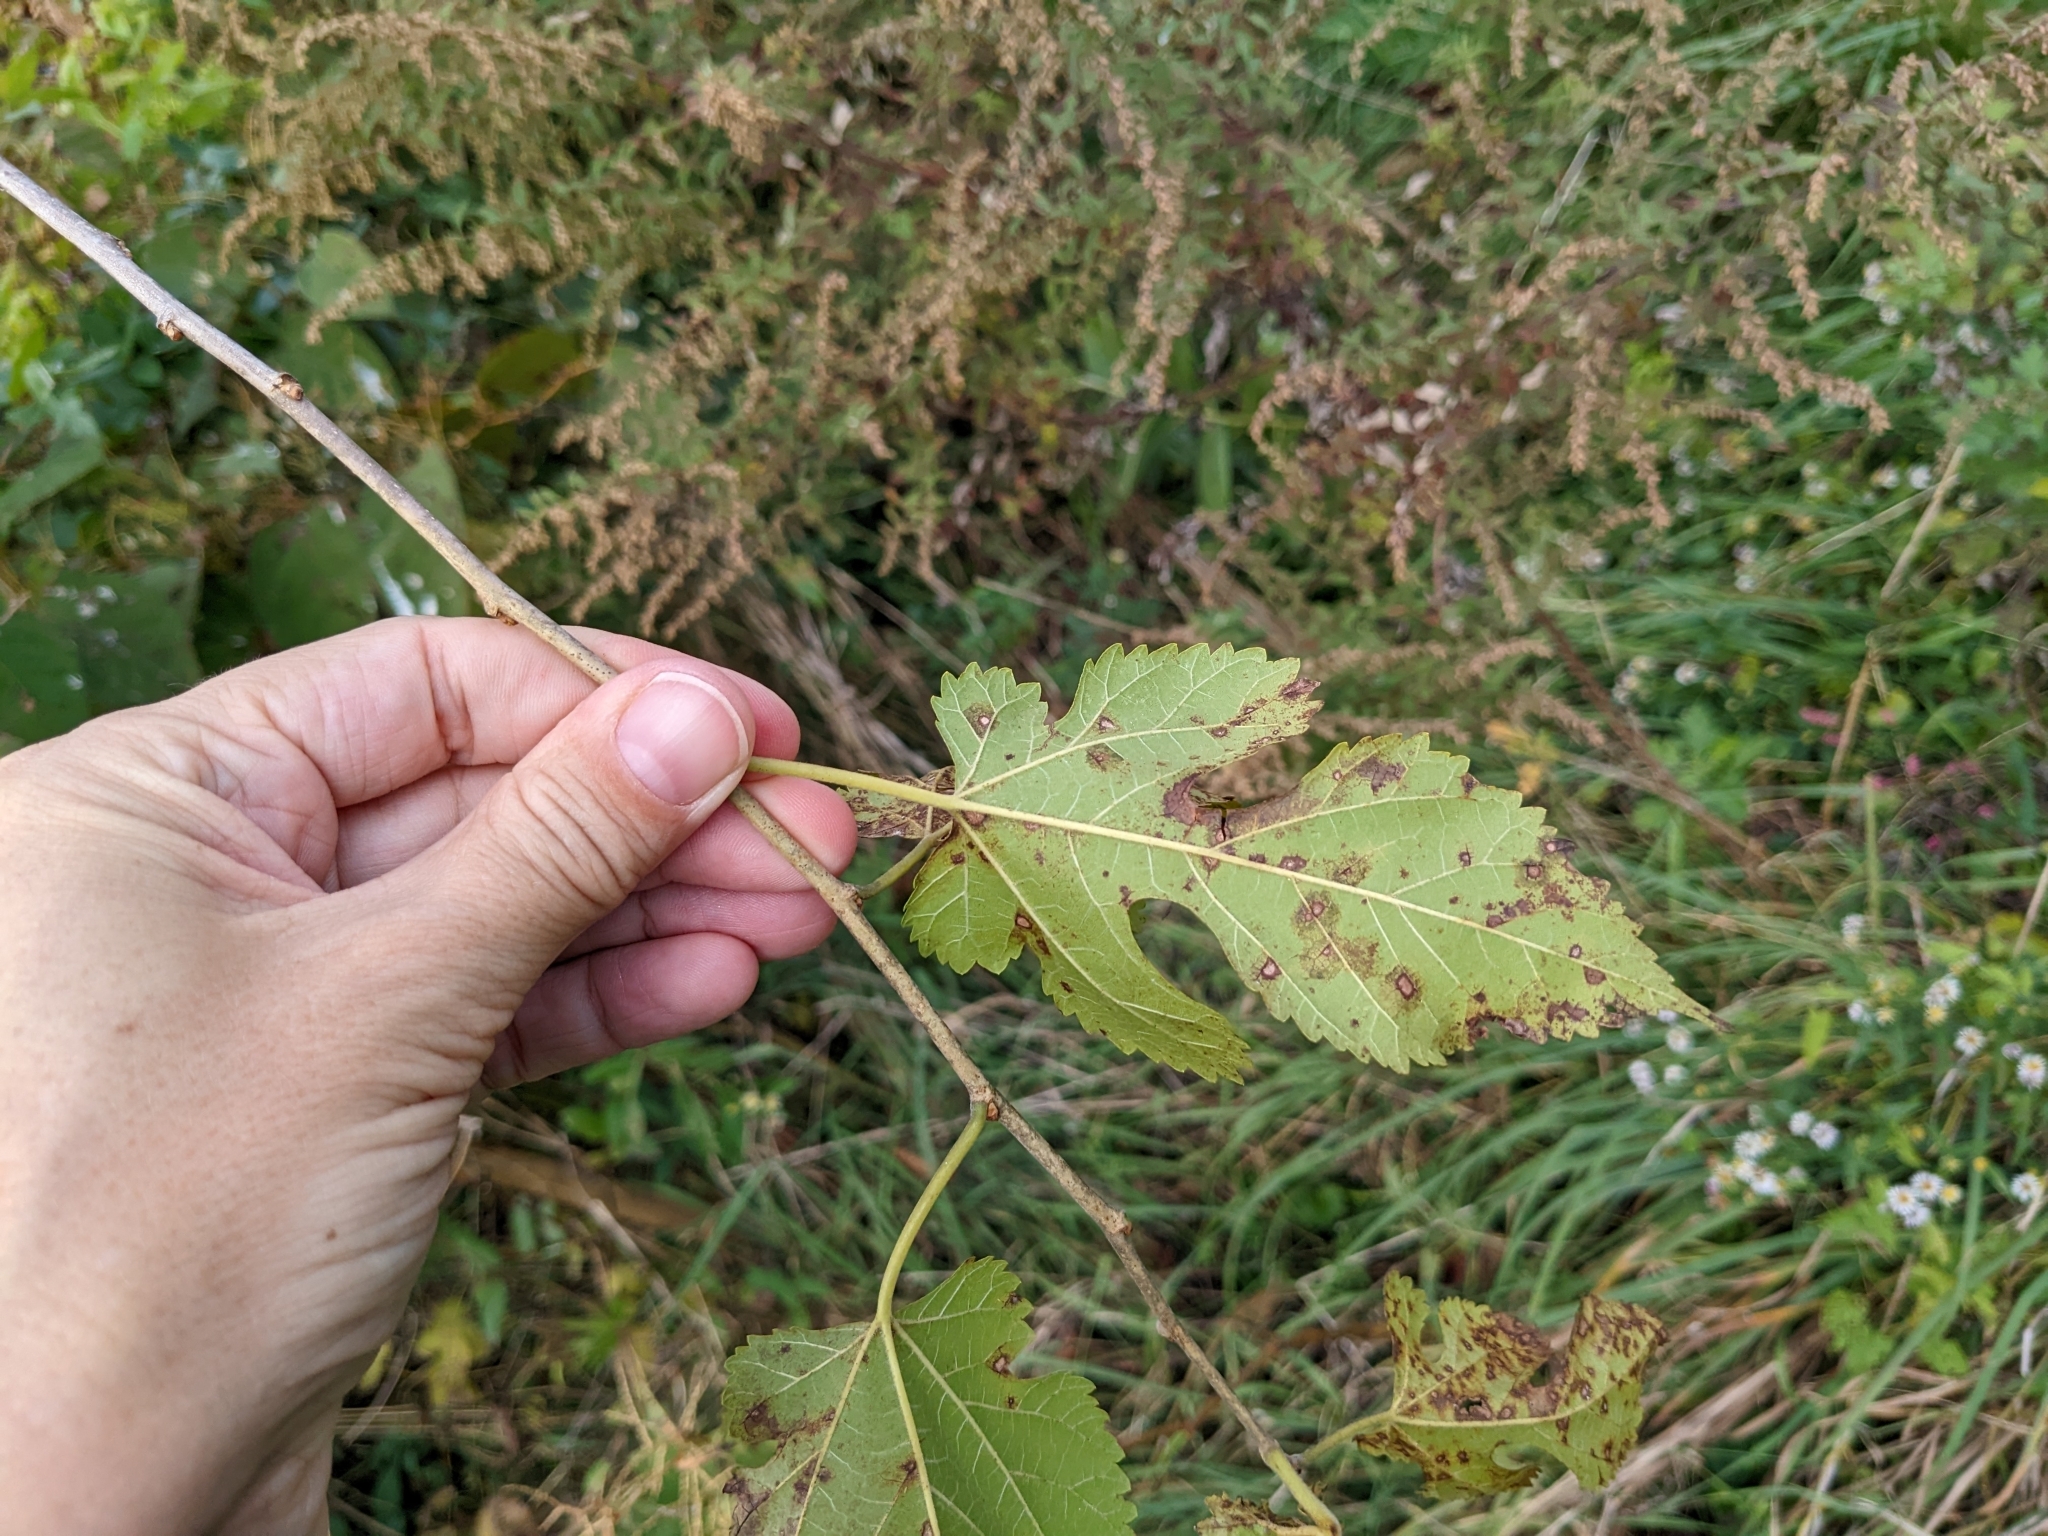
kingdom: Plantae
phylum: Tracheophyta
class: Magnoliopsida
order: Rosales
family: Moraceae
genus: Morus
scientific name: Morus alba
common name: White mulberry
